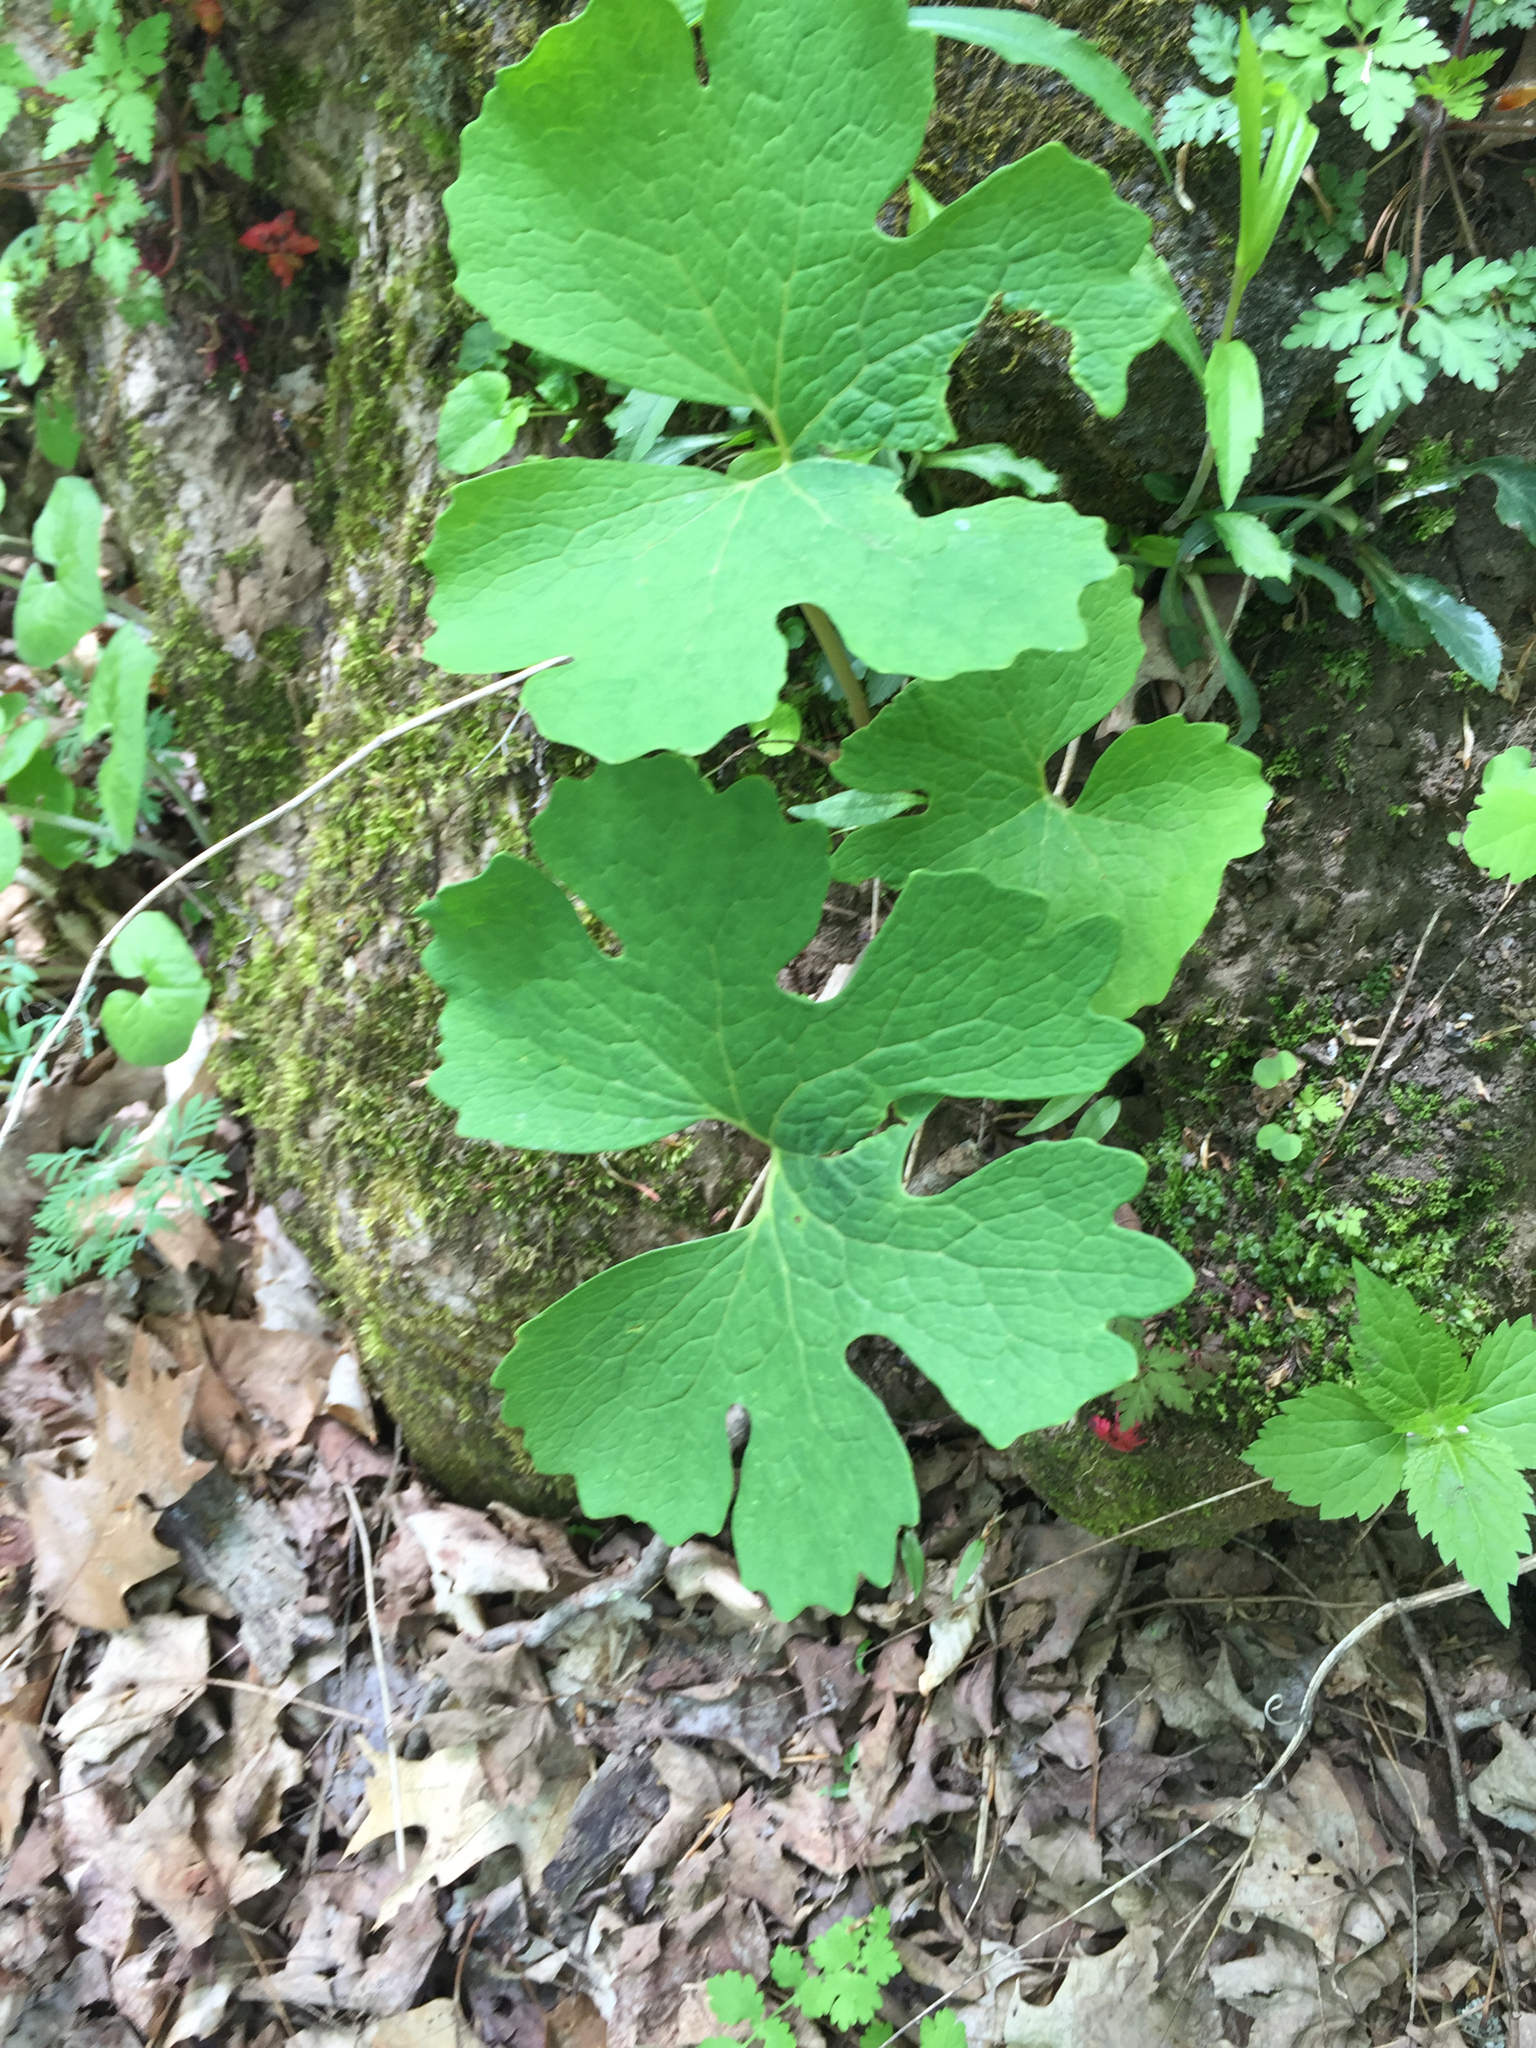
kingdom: Plantae
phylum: Tracheophyta
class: Magnoliopsida
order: Ranunculales
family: Papaveraceae
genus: Sanguinaria
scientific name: Sanguinaria canadensis
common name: Bloodroot
